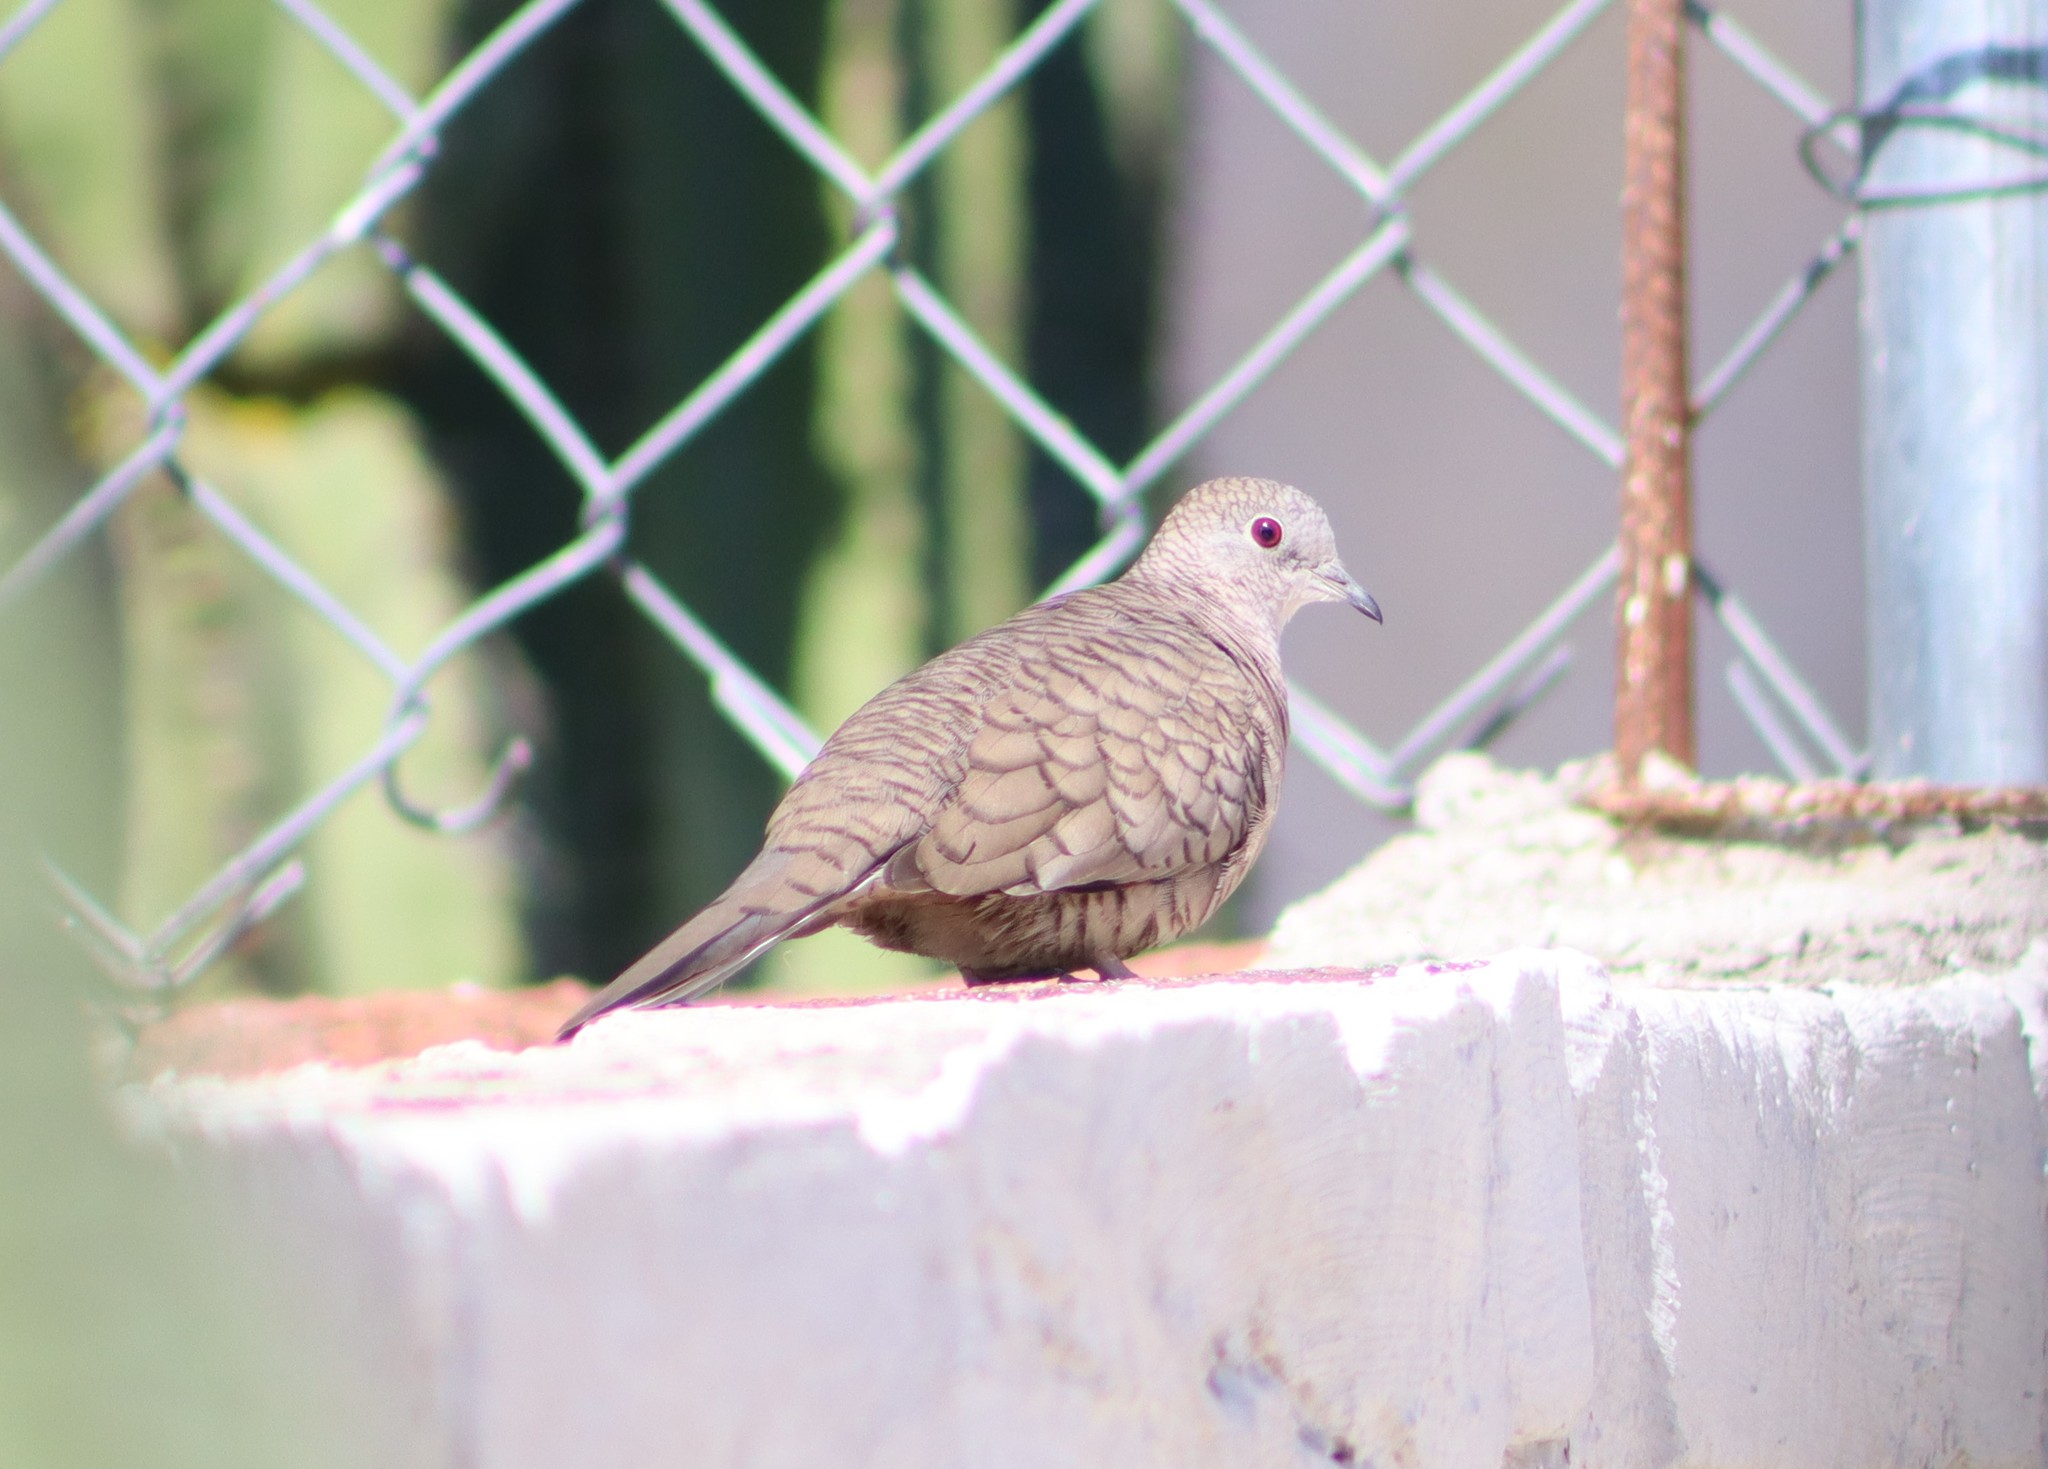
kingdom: Animalia
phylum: Chordata
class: Aves
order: Columbiformes
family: Columbidae
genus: Columbina
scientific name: Columbina inca
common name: Inca dove
